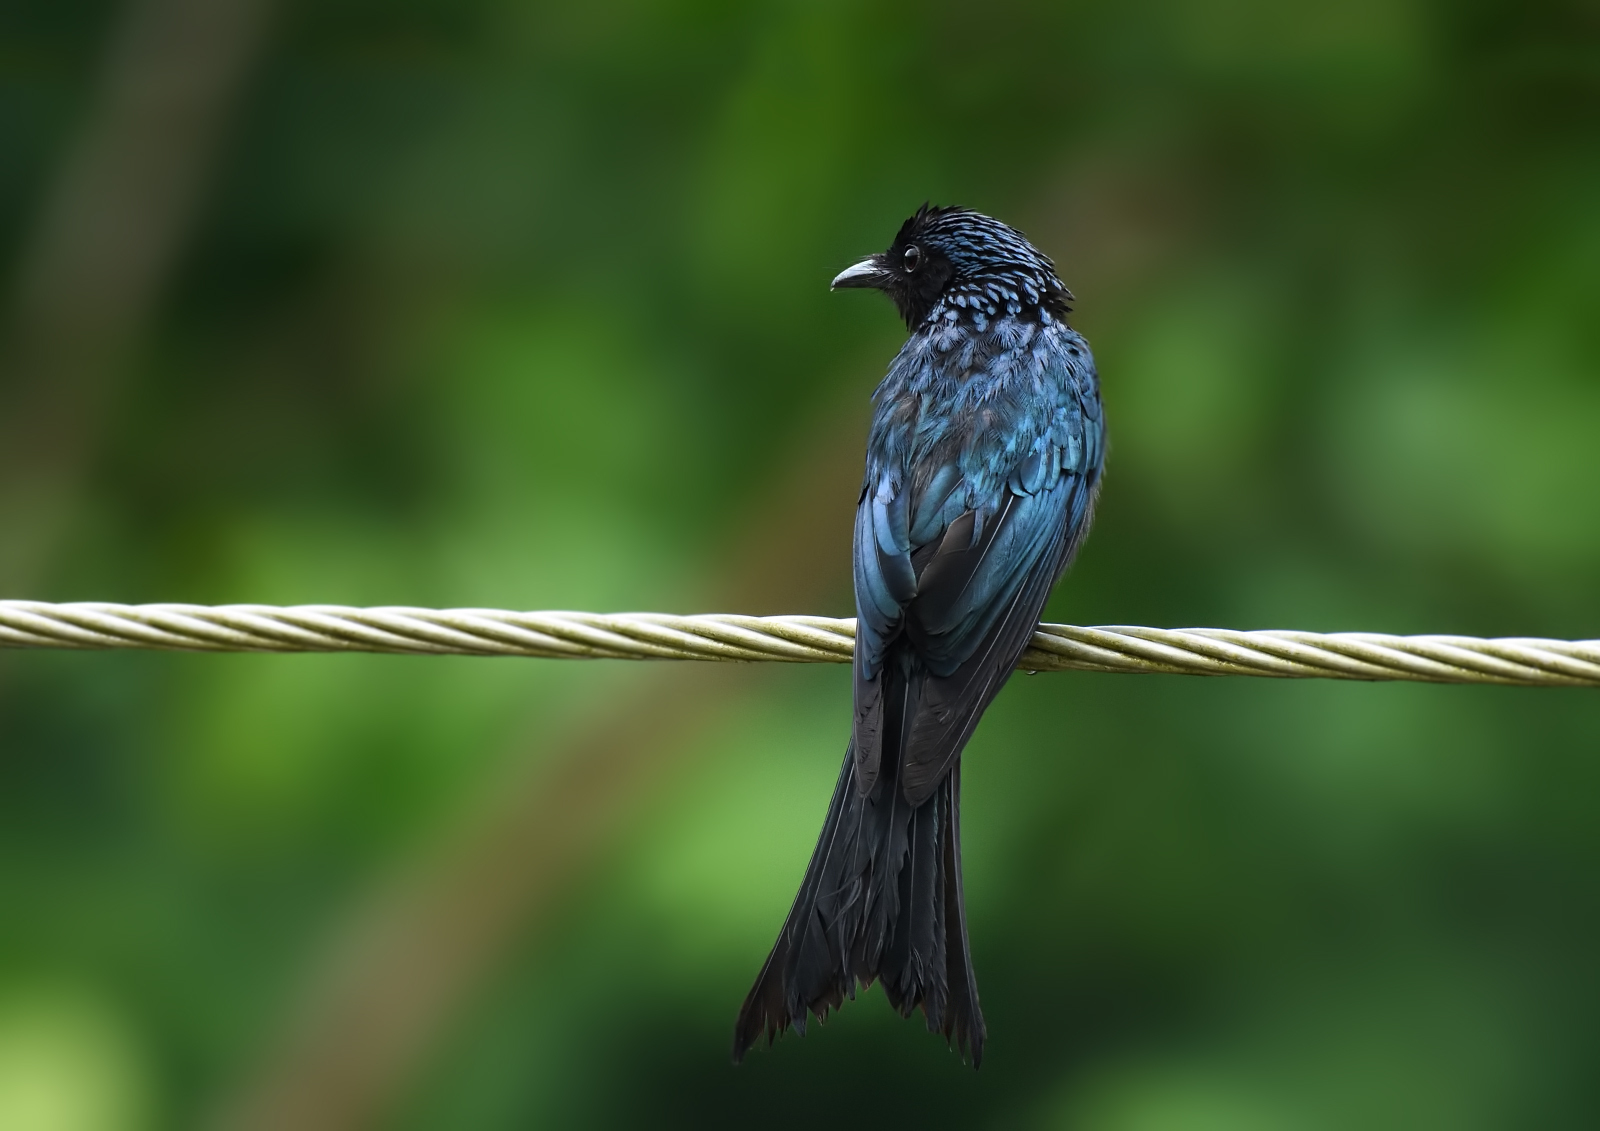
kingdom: Animalia
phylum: Chordata
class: Aves
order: Passeriformes
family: Dicruridae
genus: Dicrurus
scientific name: Dicrurus aeneus
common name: Bronzed drongo
